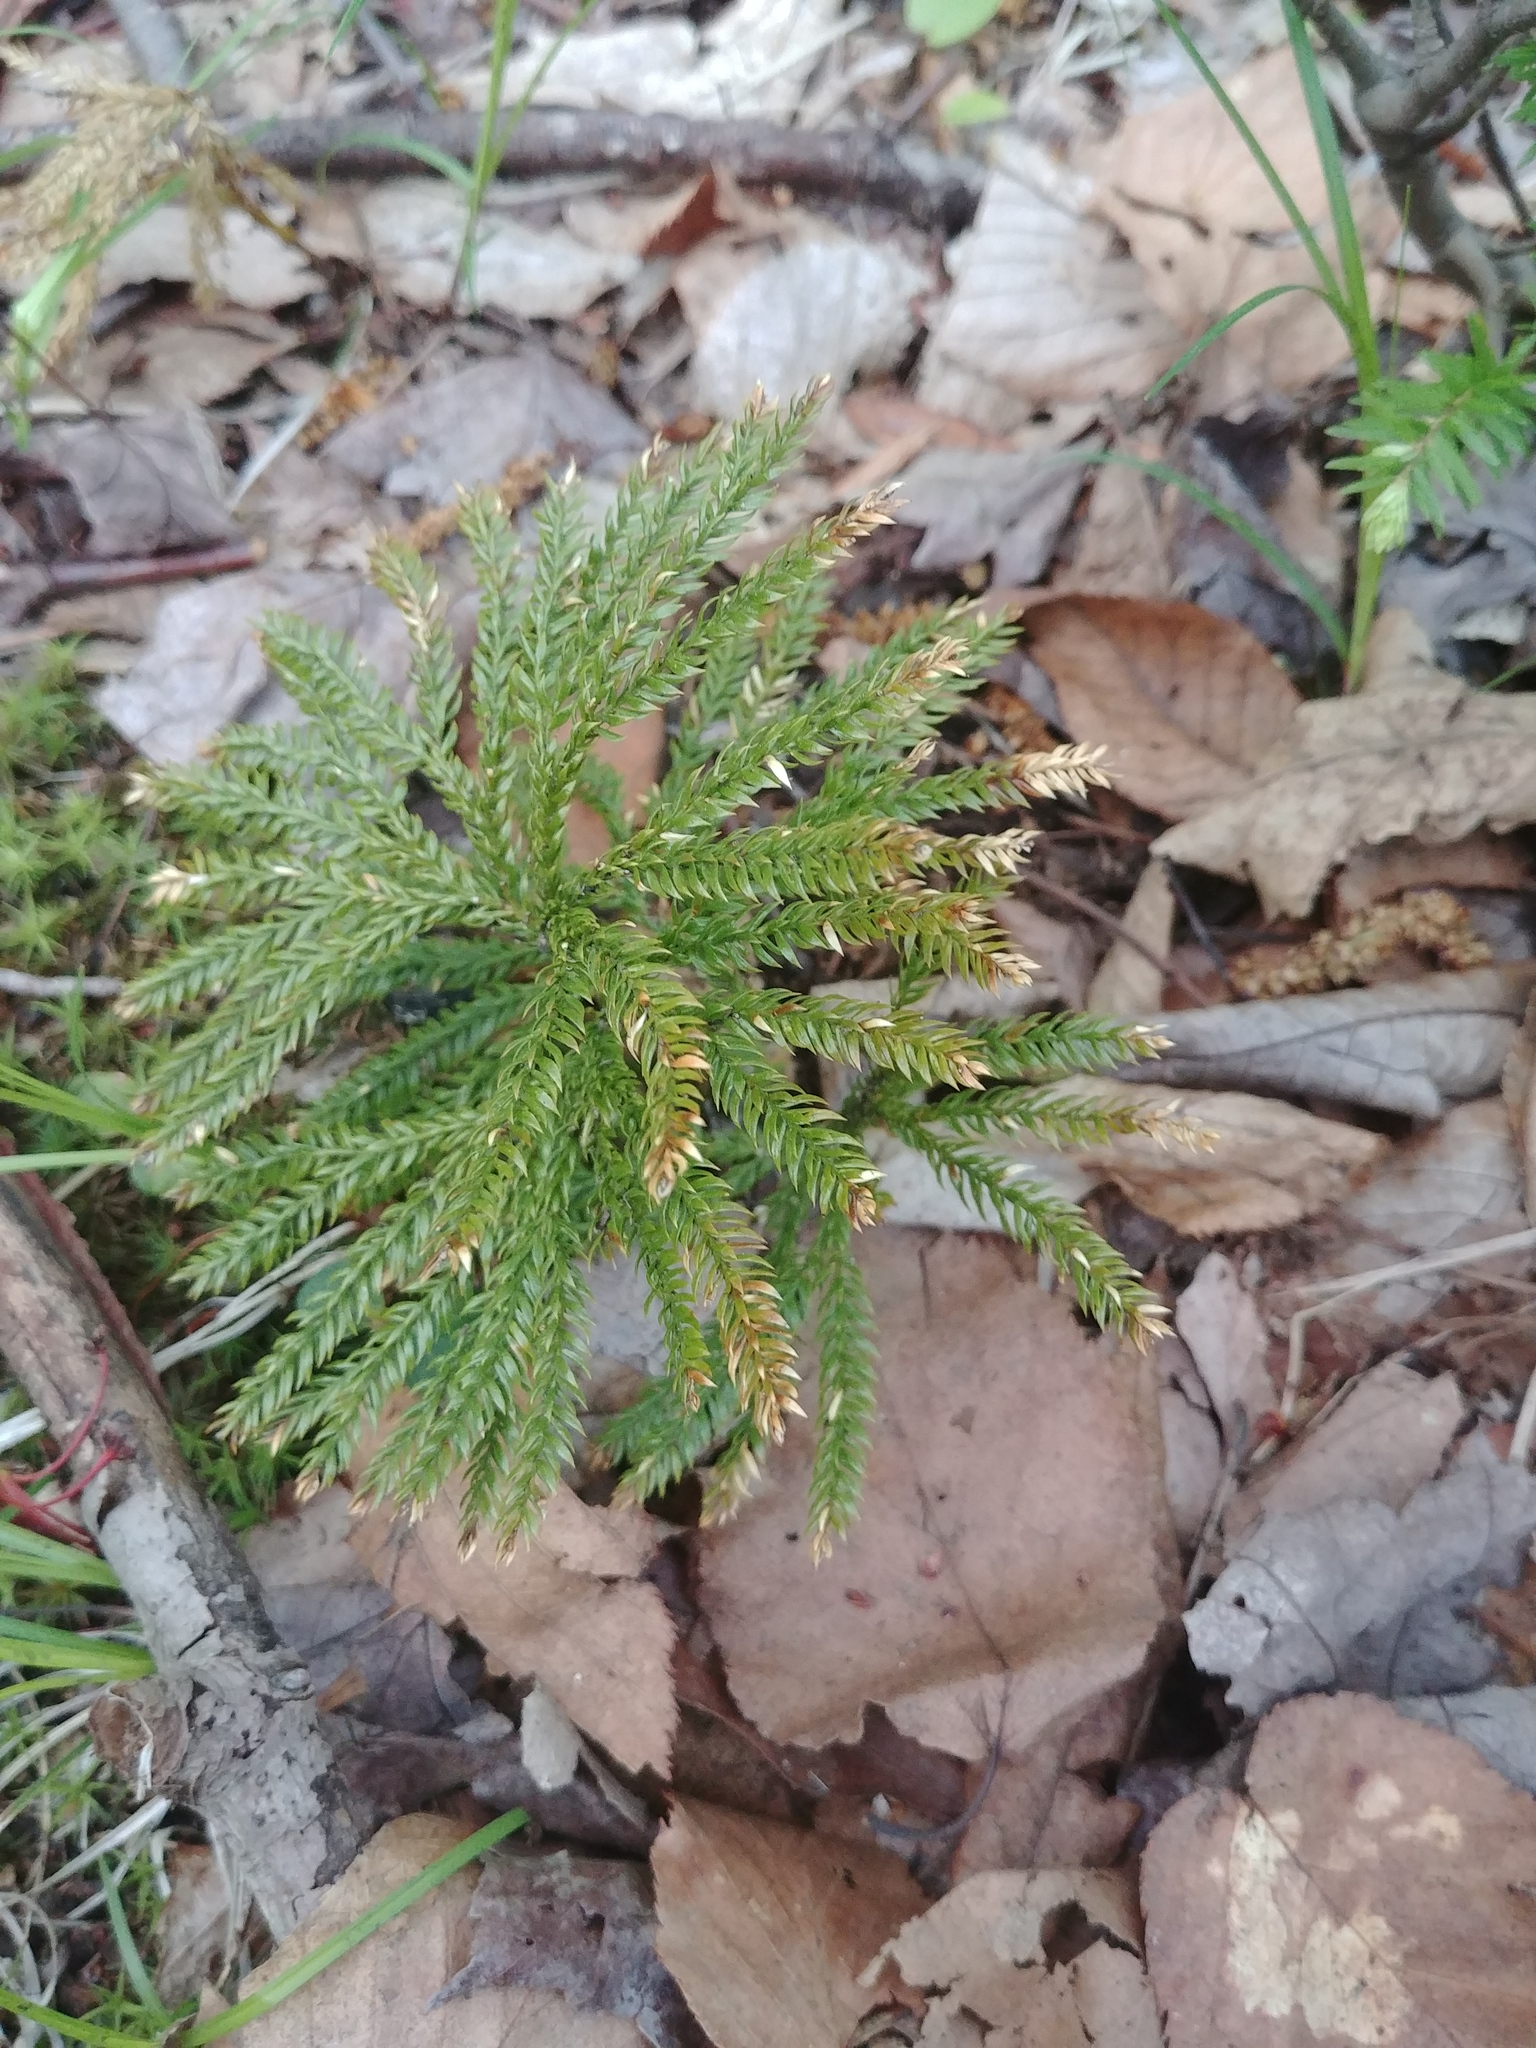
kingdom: Plantae
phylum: Tracheophyta
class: Lycopodiopsida
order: Lycopodiales
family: Lycopodiaceae
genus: Dendrolycopodium
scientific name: Dendrolycopodium obscurum
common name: Common ground-pine
